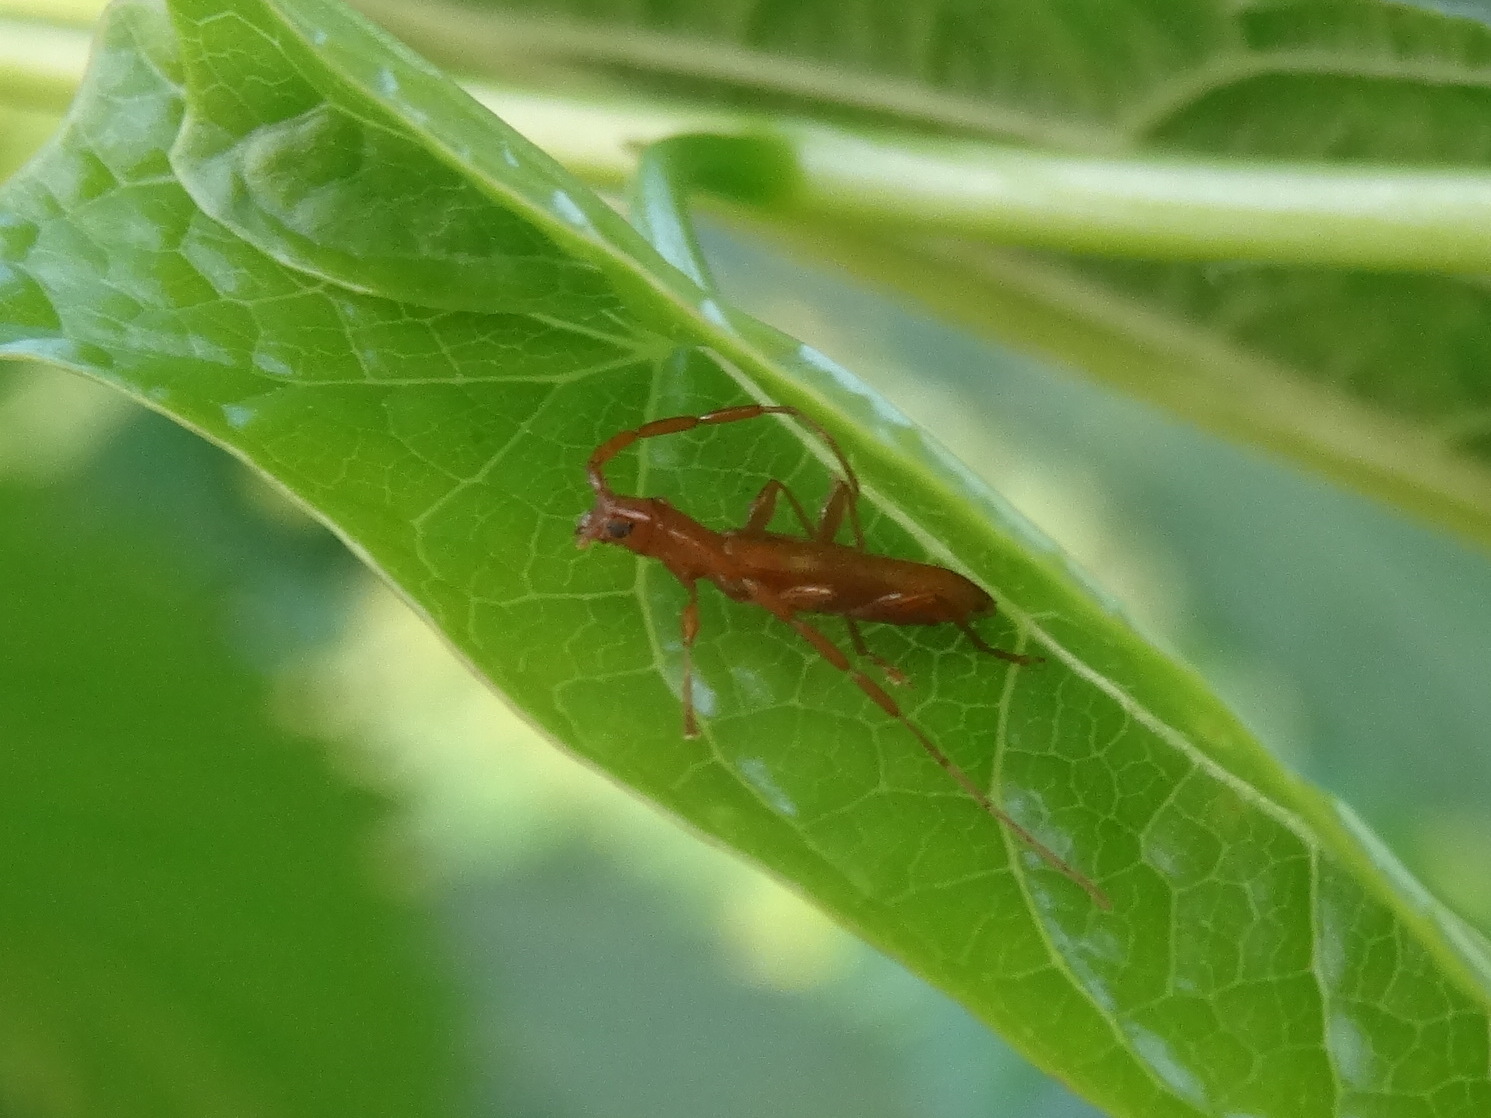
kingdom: Animalia
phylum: Arthropoda
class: Insecta
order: Coleoptera
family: Cerambycidae
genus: Heterachthes
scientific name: Heterachthes quadrimaculatus
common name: Four-spotted hickory borer
